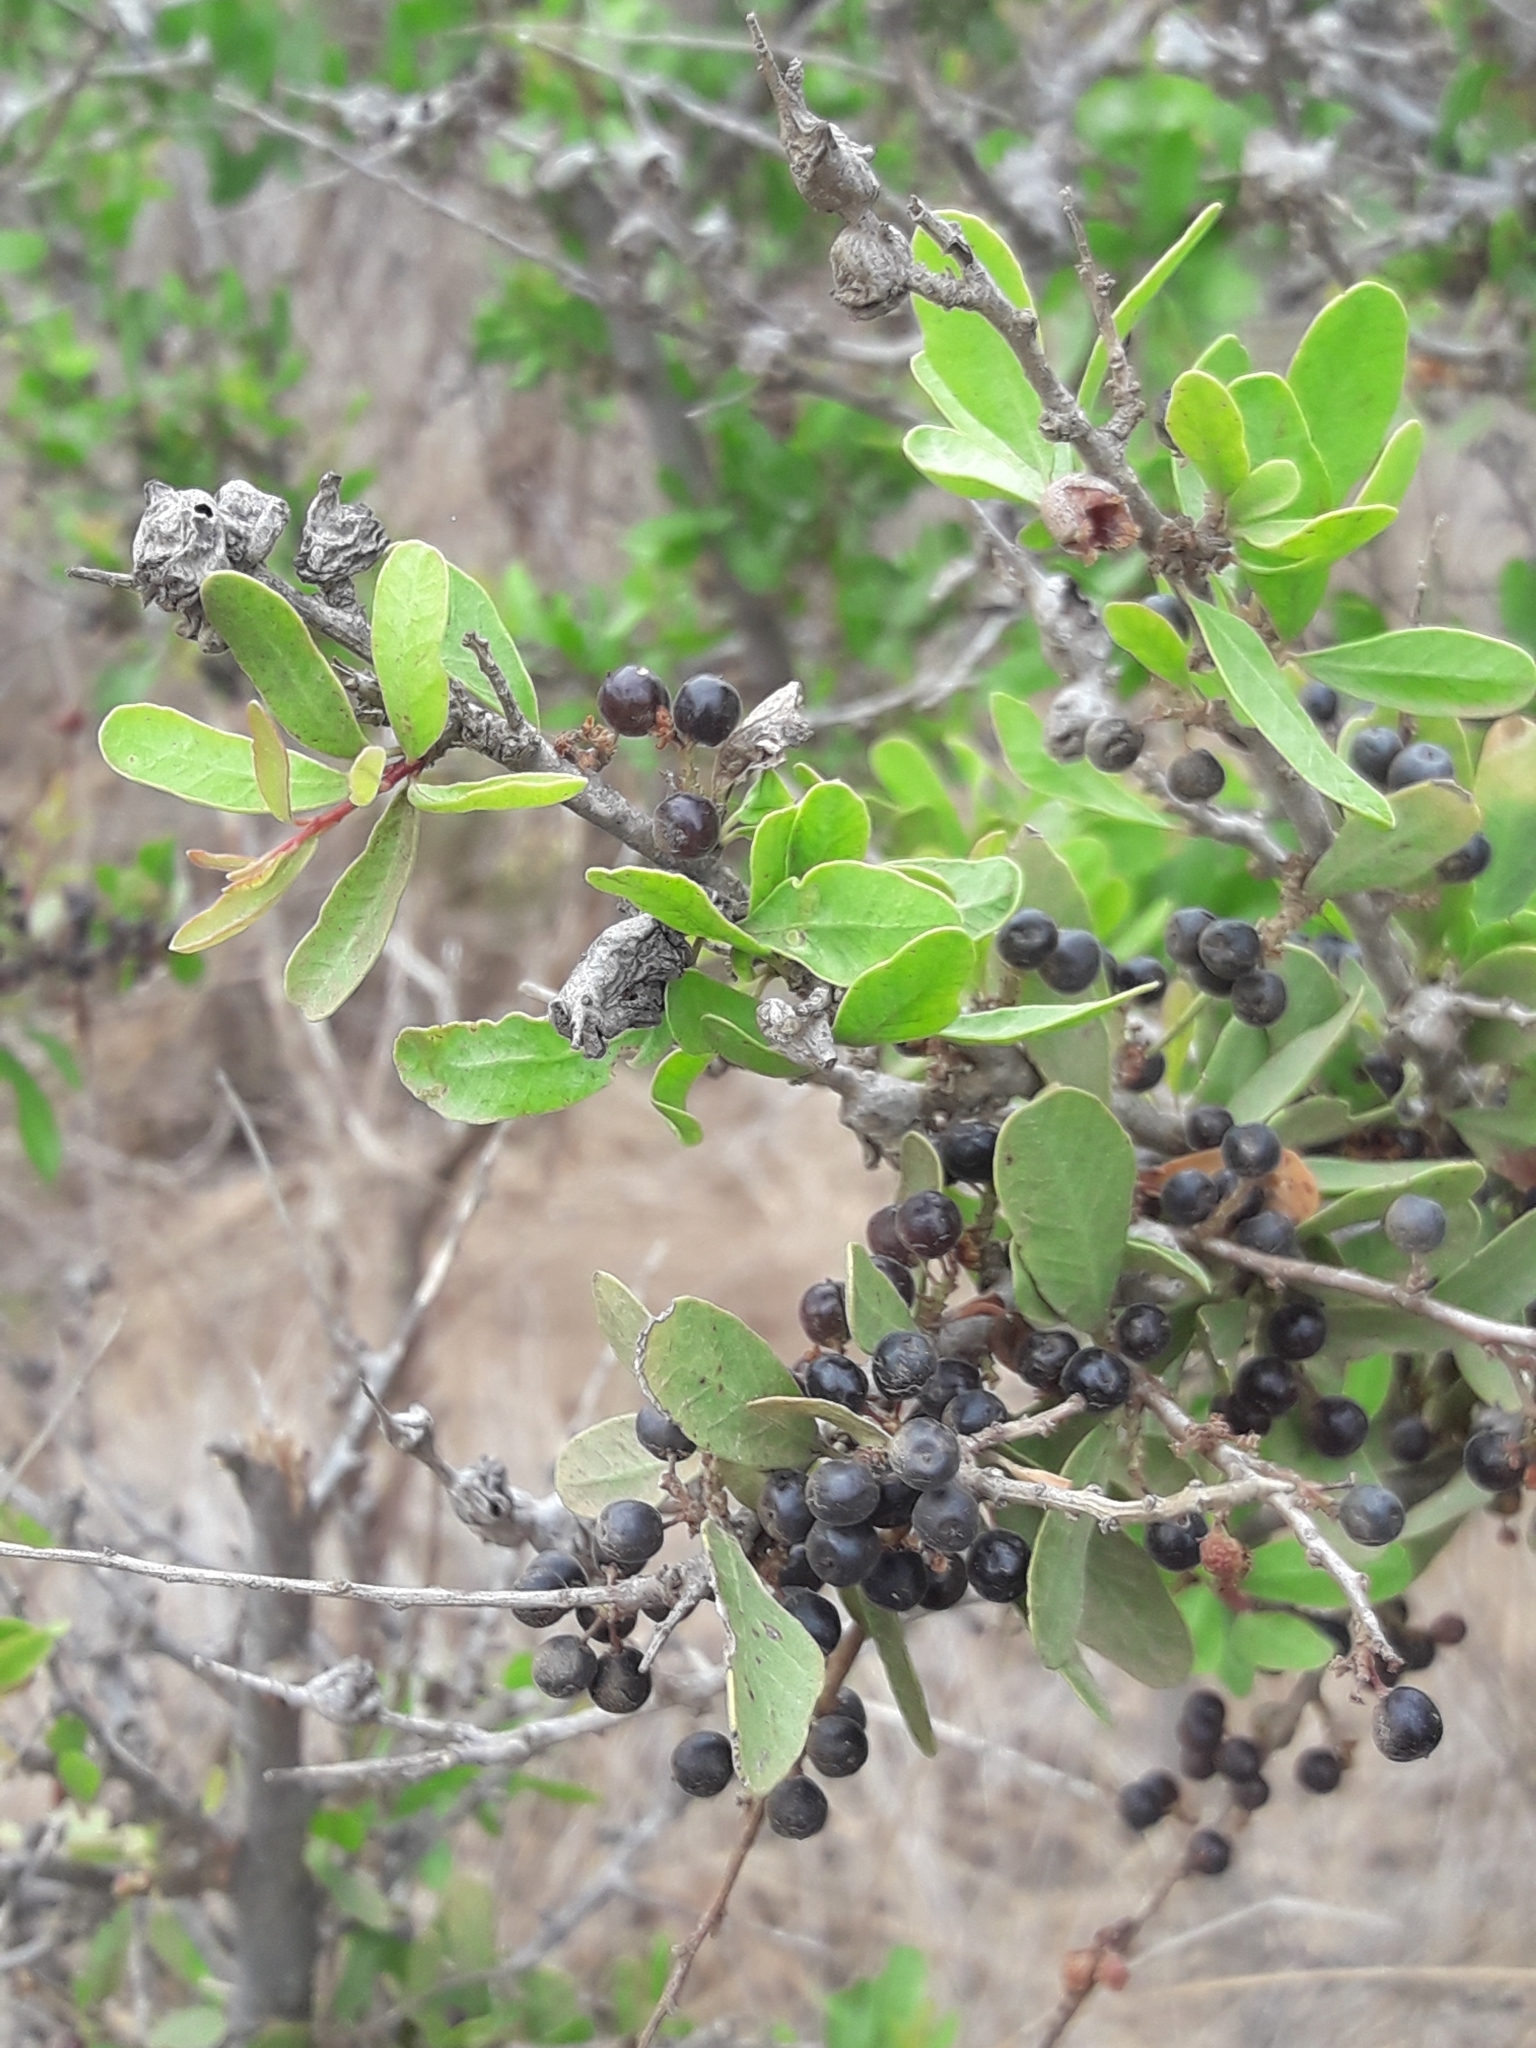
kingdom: Plantae
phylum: Tracheophyta
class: Magnoliopsida
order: Sapindales
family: Anacardiaceae
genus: Schinus
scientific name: Schinus polygama
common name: Hardee peppertree
